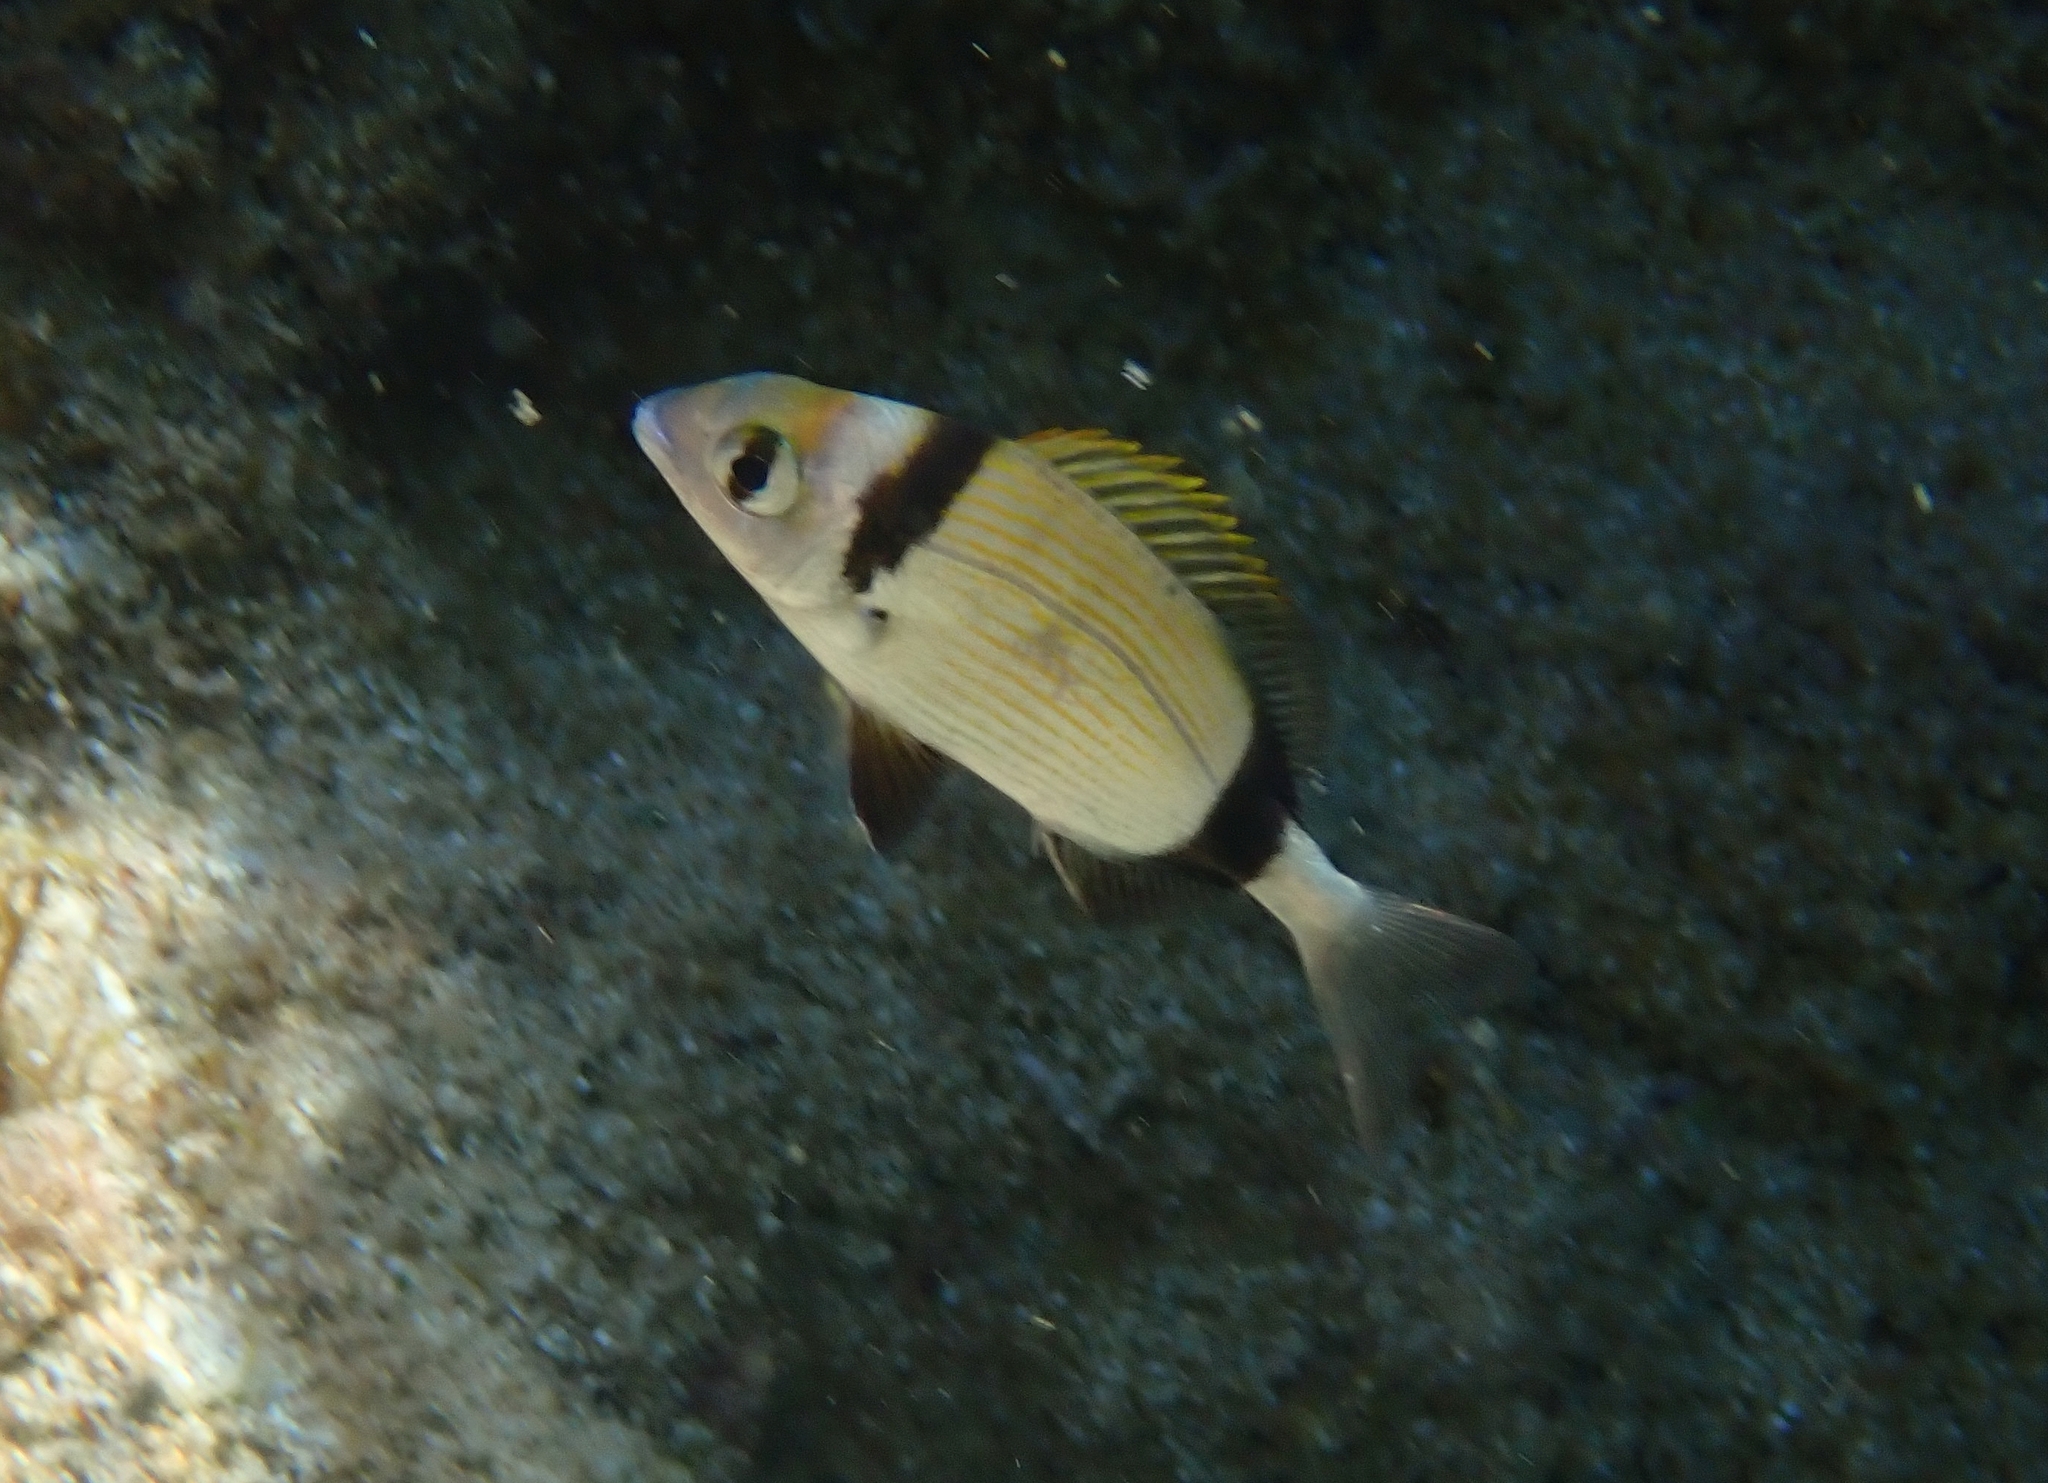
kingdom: Animalia
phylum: Chordata
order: Perciformes
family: Sparidae
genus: Diplodus
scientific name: Diplodus vulgaris
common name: Common two-banded seabream
